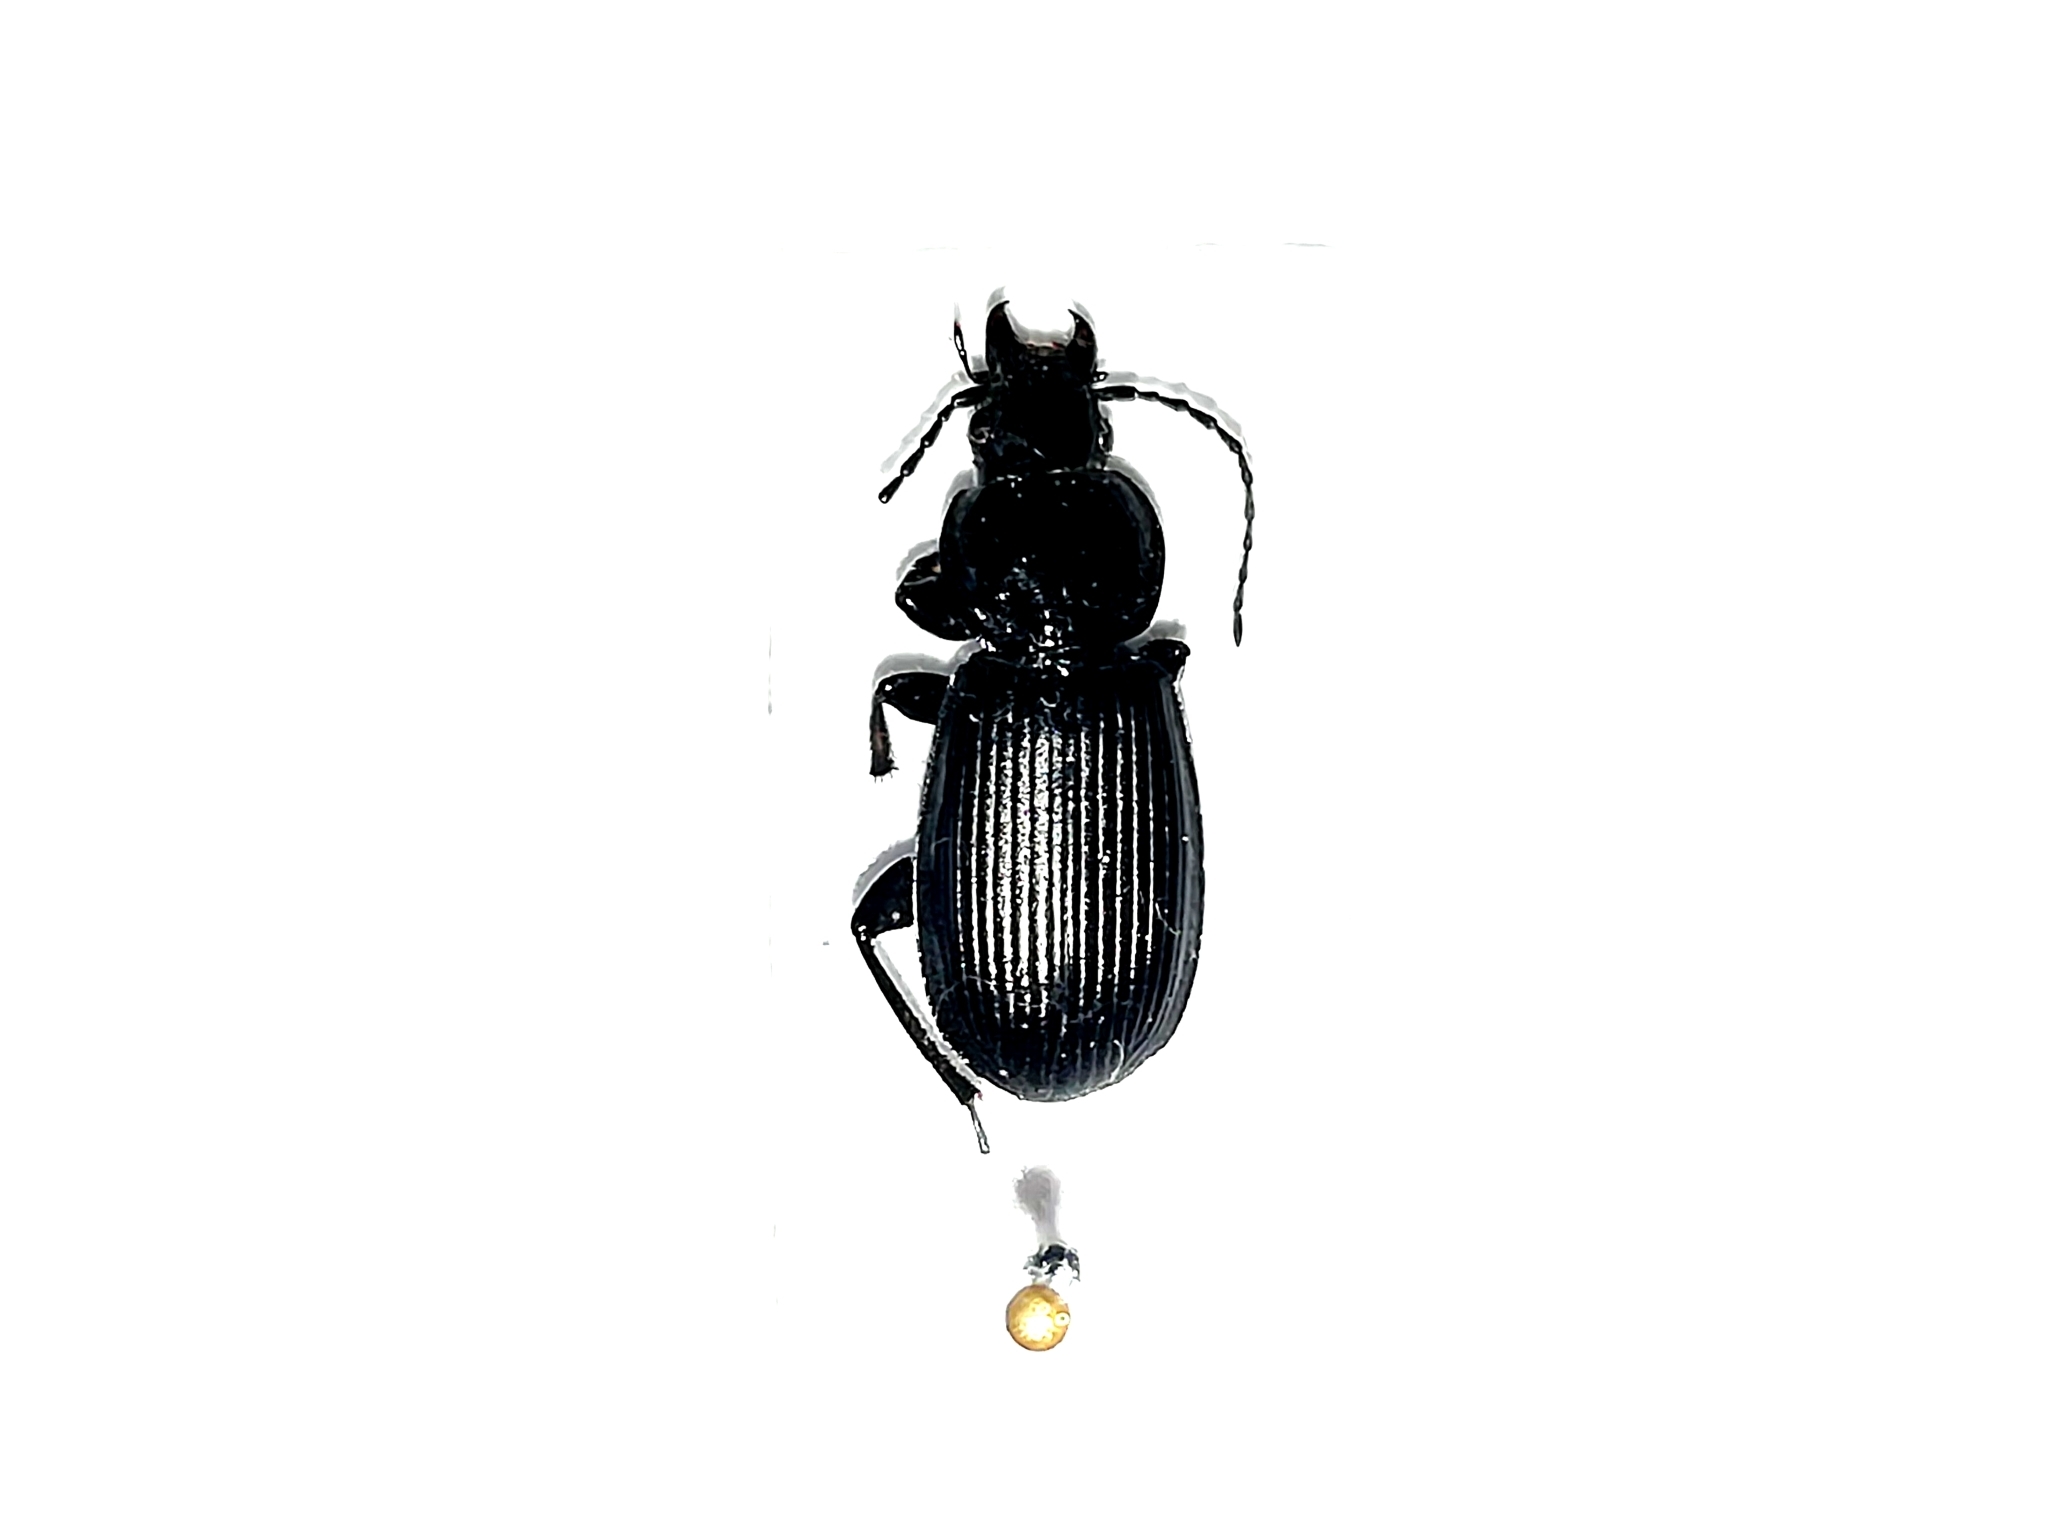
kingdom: Animalia
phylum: Arthropoda
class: Insecta
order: Coleoptera
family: Carabidae
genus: Pterostichus
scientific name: Pterostichus melanarius
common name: European dark harp ground beetle
